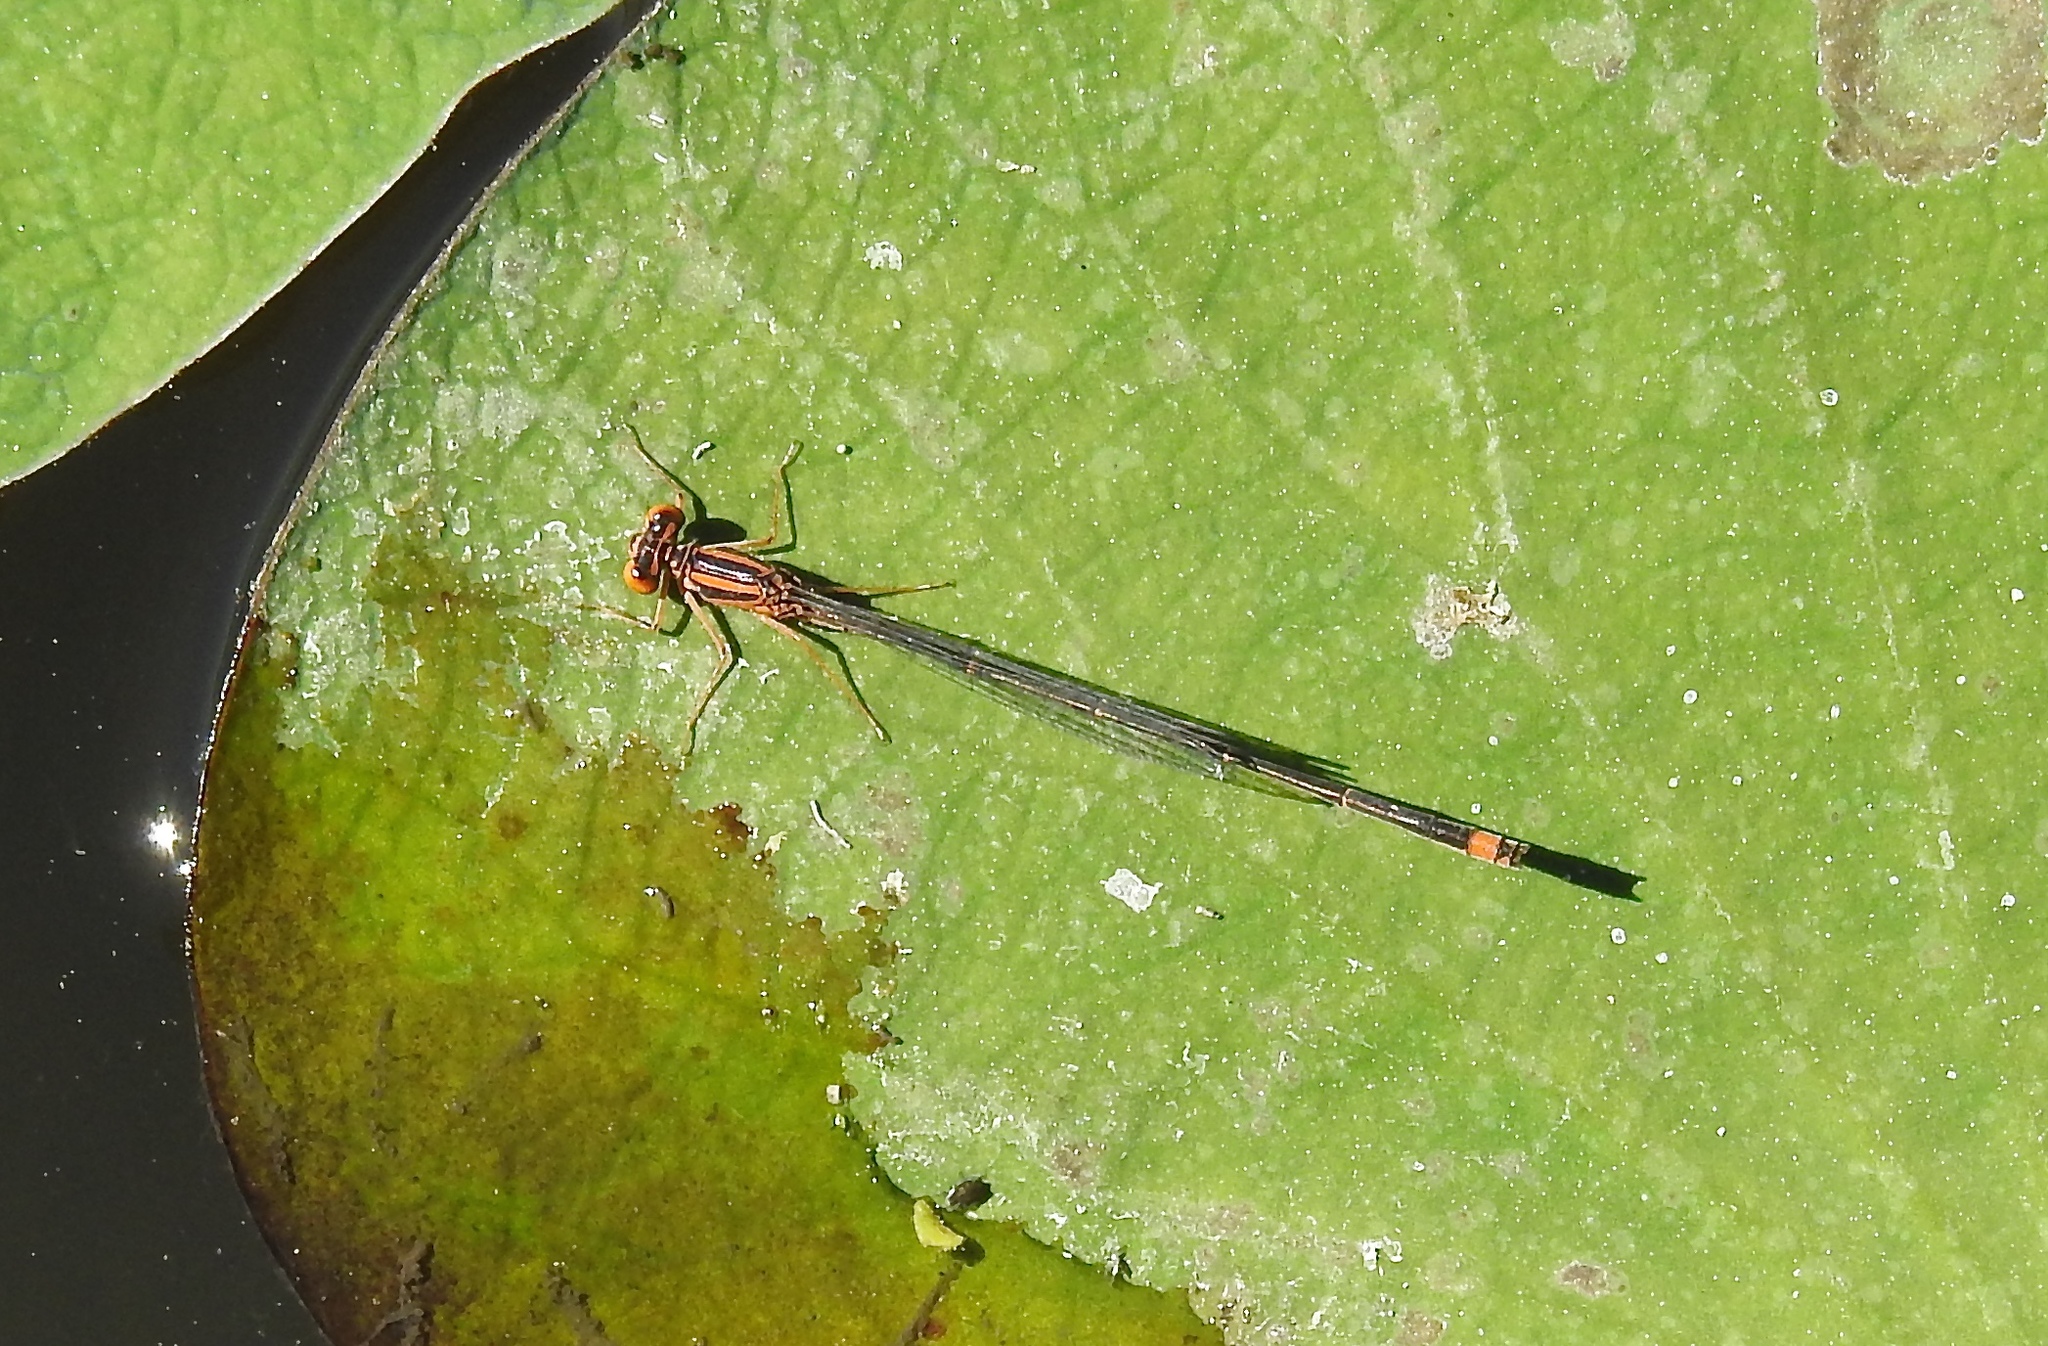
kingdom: Animalia
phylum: Arthropoda
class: Insecta
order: Odonata
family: Coenagrionidae
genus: Enallagma
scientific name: Enallagma pollutum
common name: Florida bluet
